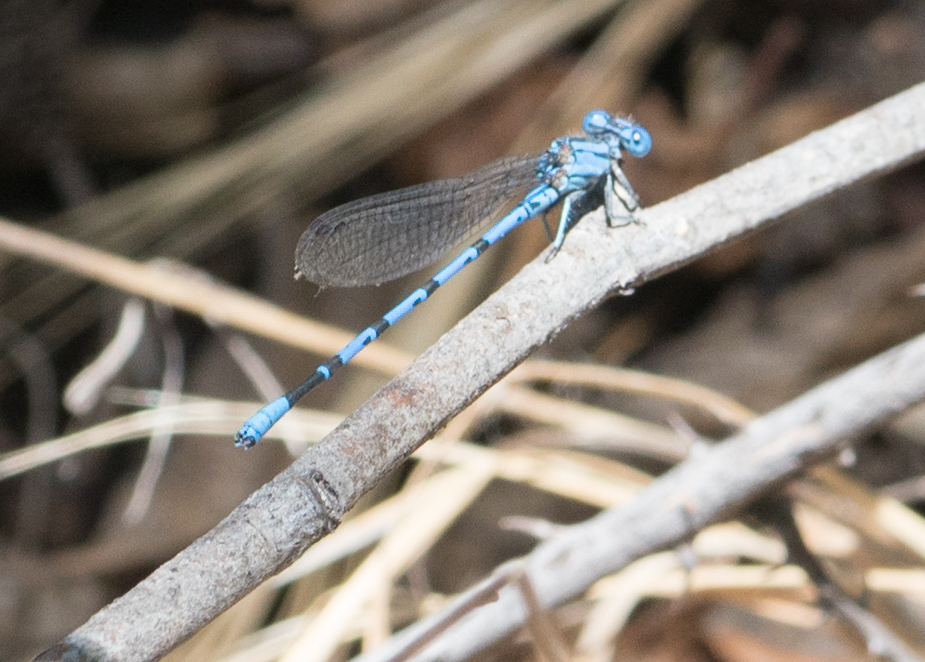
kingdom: Animalia
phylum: Arthropoda
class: Insecta
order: Odonata
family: Coenagrionidae
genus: Argia
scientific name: Argia vivida
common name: Vivid dancer
